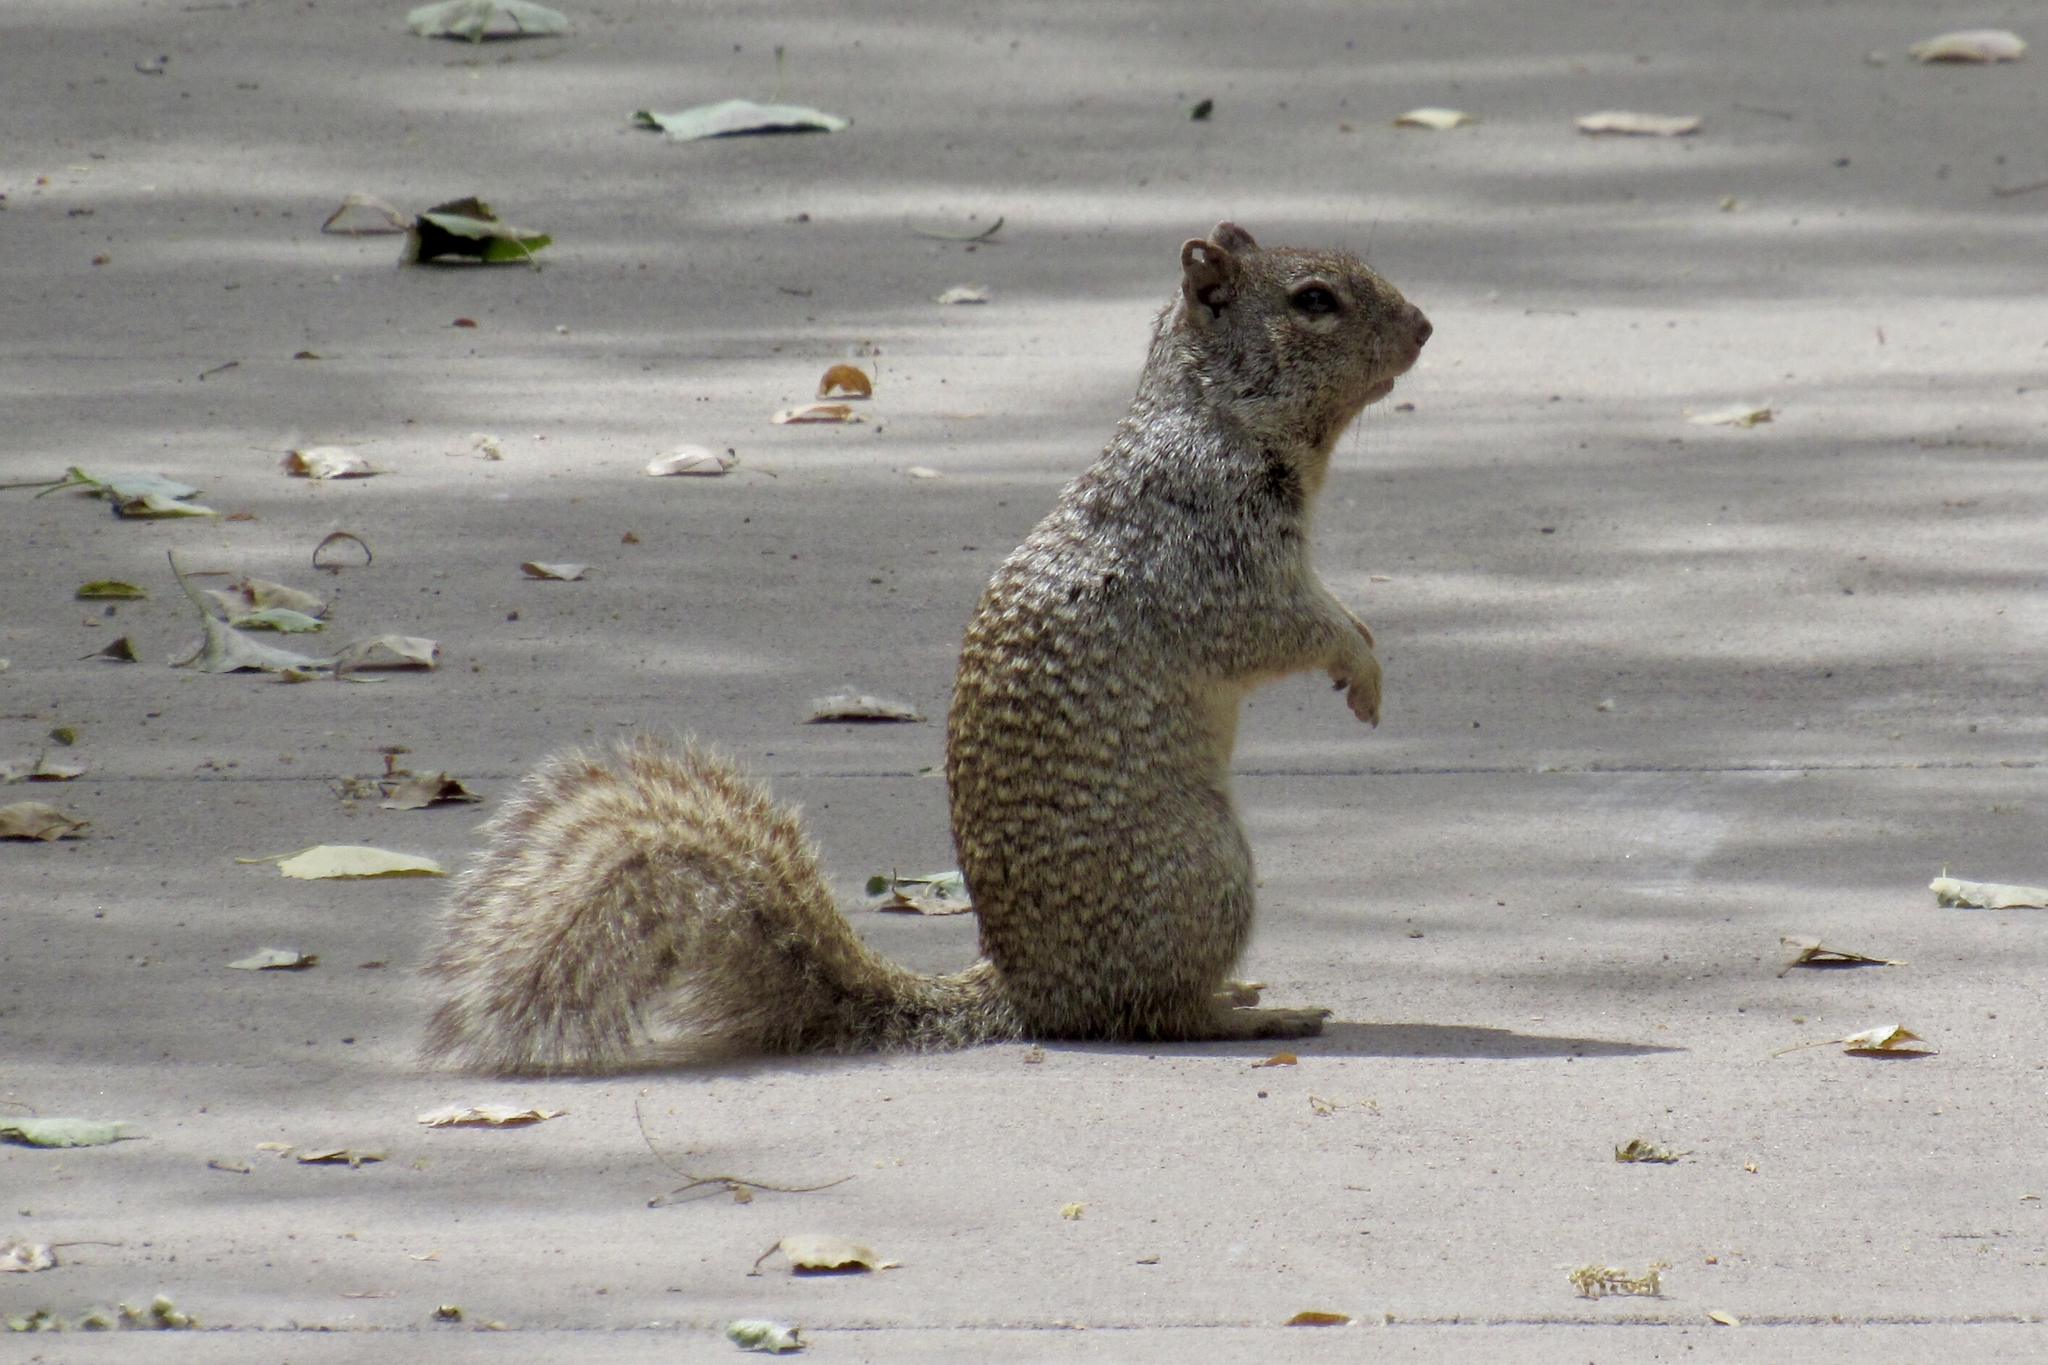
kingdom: Animalia
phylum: Chordata
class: Mammalia
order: Rodentia
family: Sciuridae
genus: Otospermophilus
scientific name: Otospermophilus variegatus
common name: Rock squirrel
